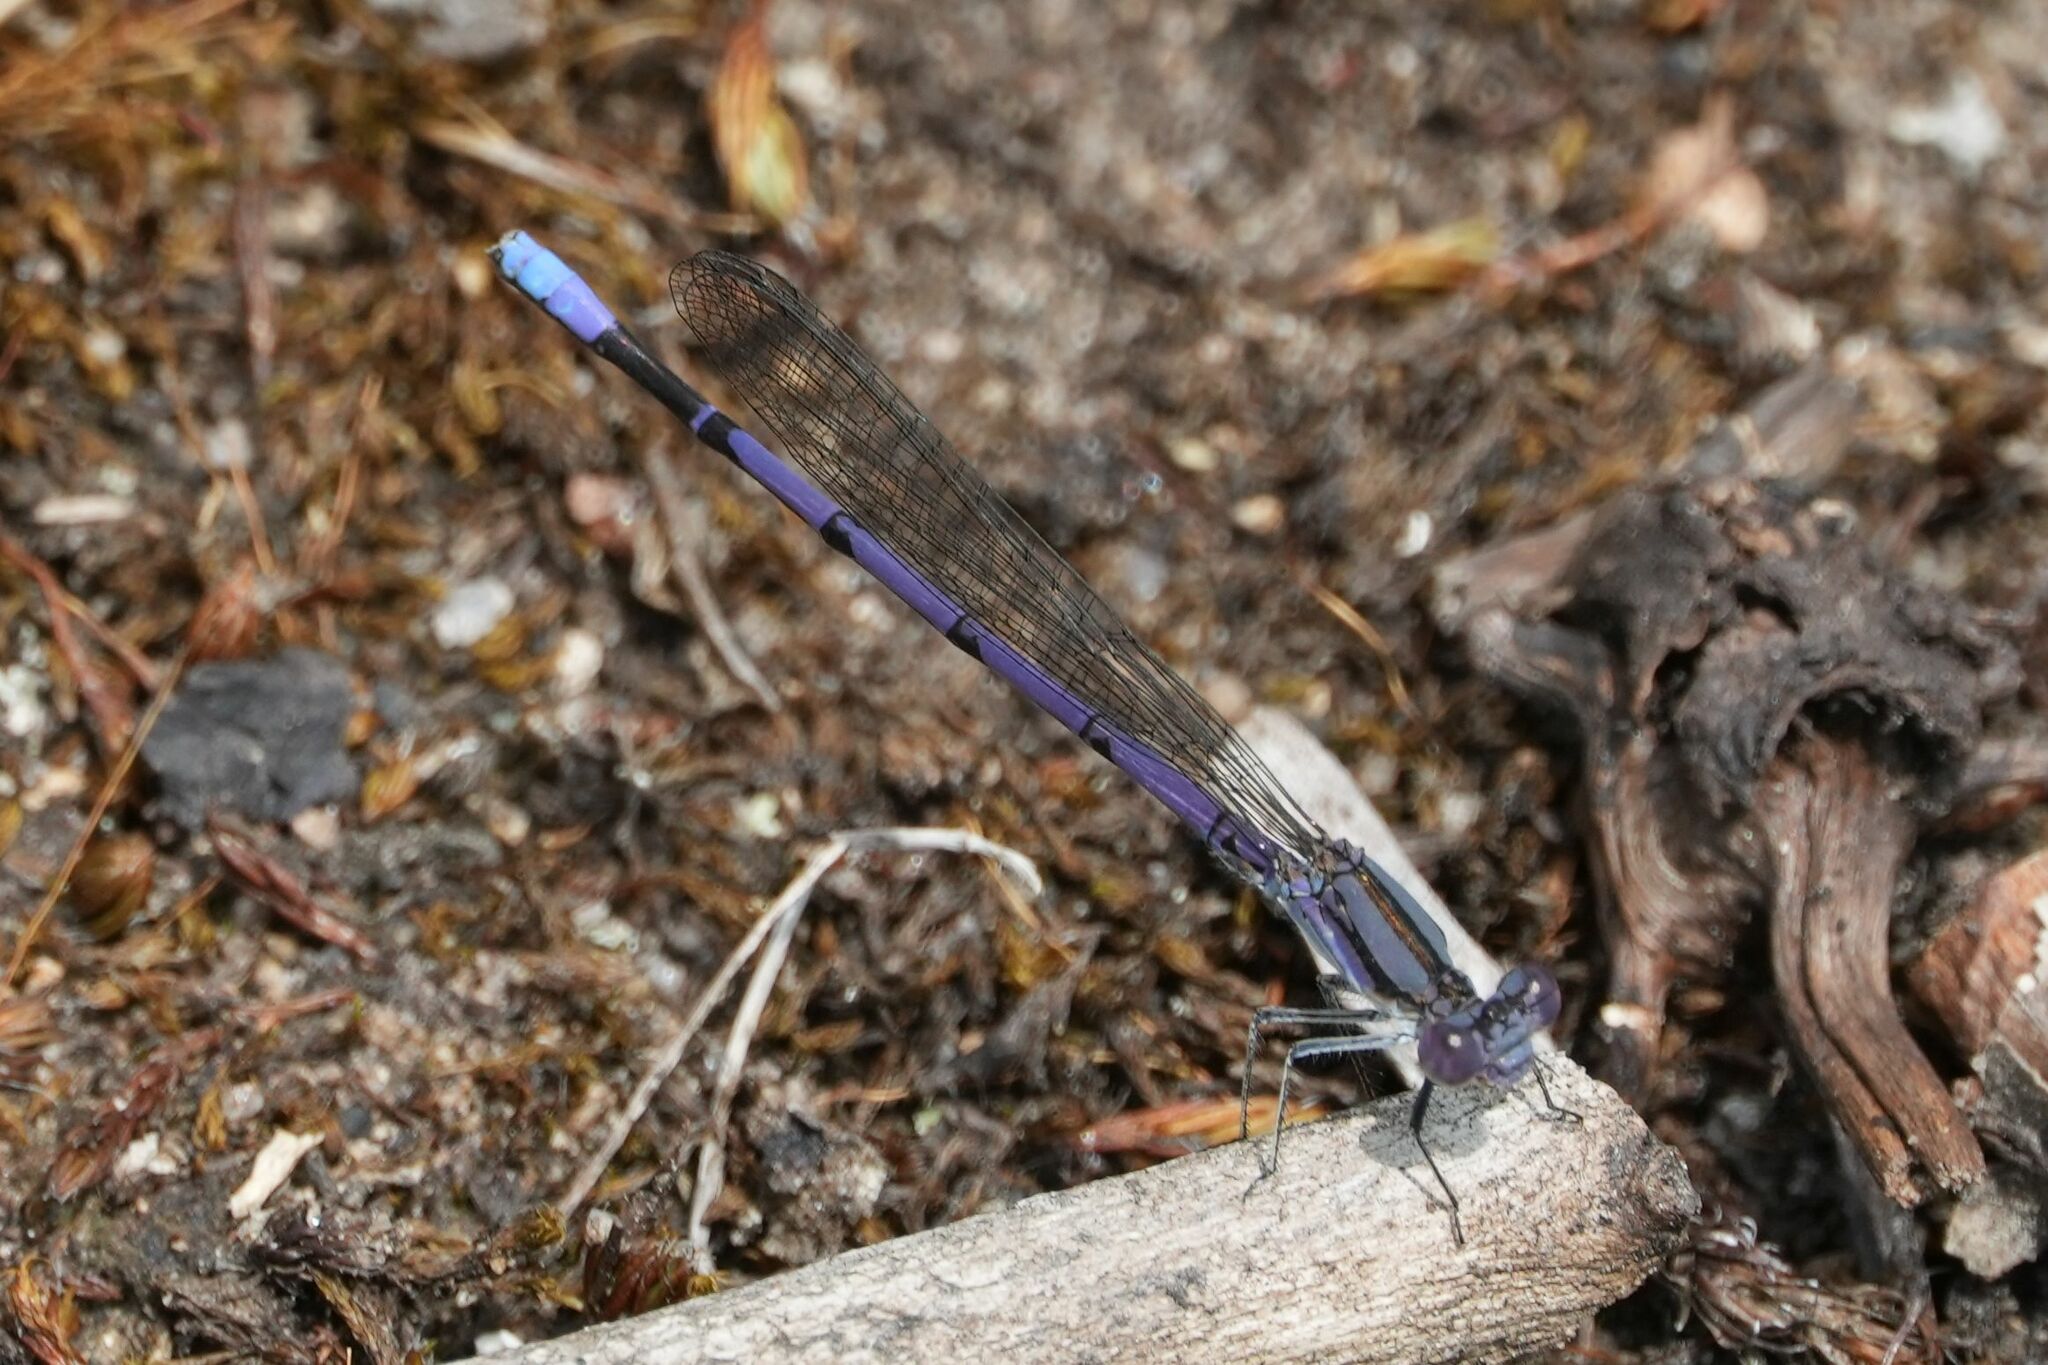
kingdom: Animalia
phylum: Arthropoda
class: Insecta
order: Odonata
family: Coenagrionidae
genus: Argia
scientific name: Argia fumipennis
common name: Variable dancer
